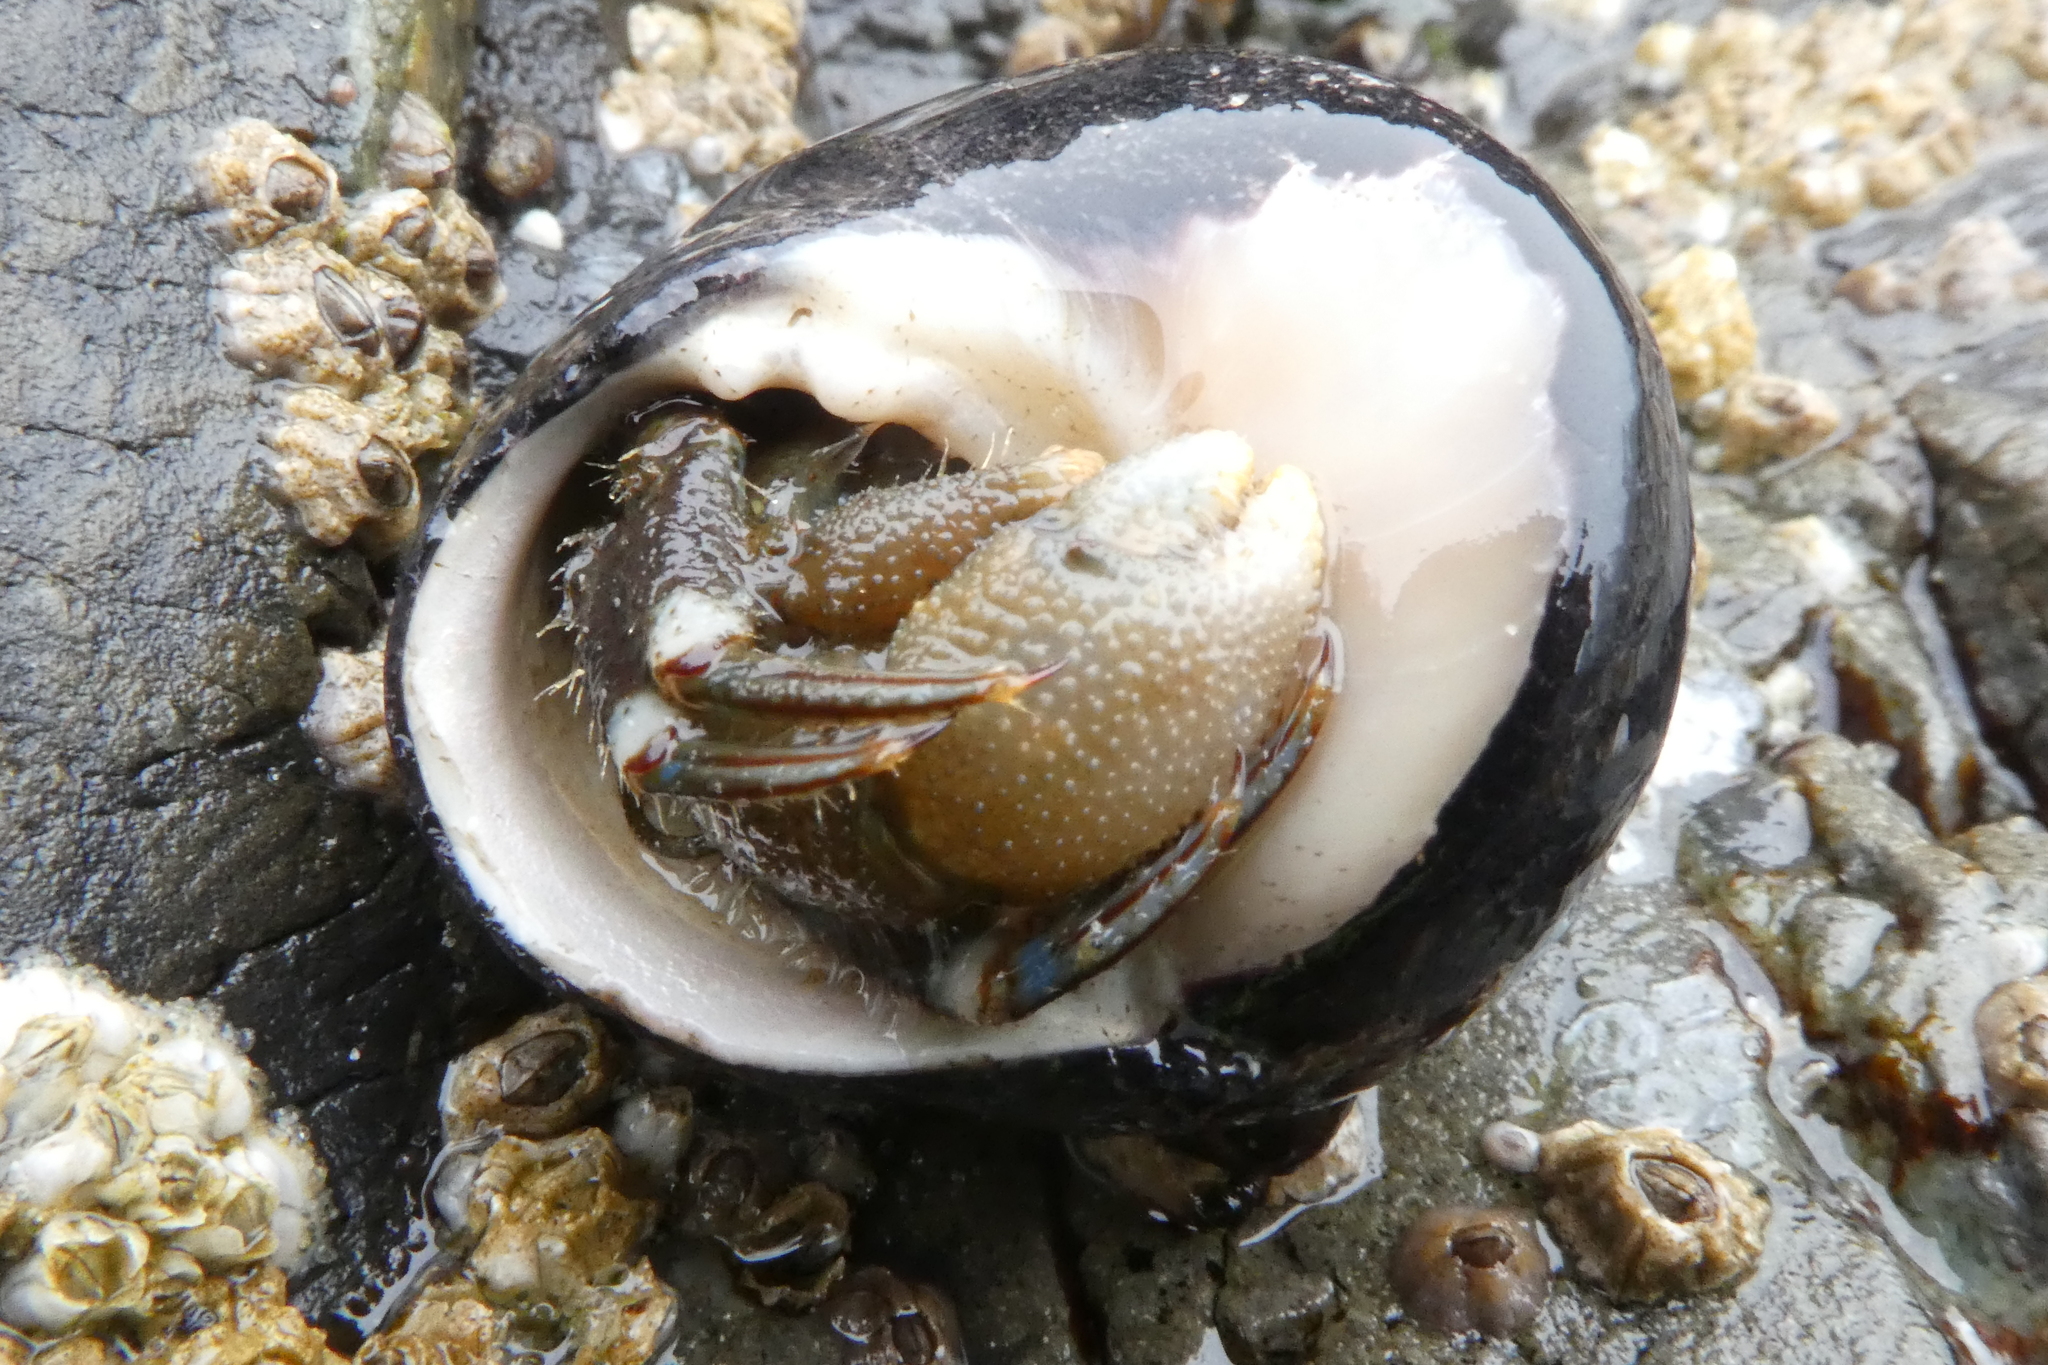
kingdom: Animalia
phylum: Arthropoda
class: Malacostraca
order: Decapoda
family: Paguridae
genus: Pagurus
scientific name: Pagurus hirsutiusculus
